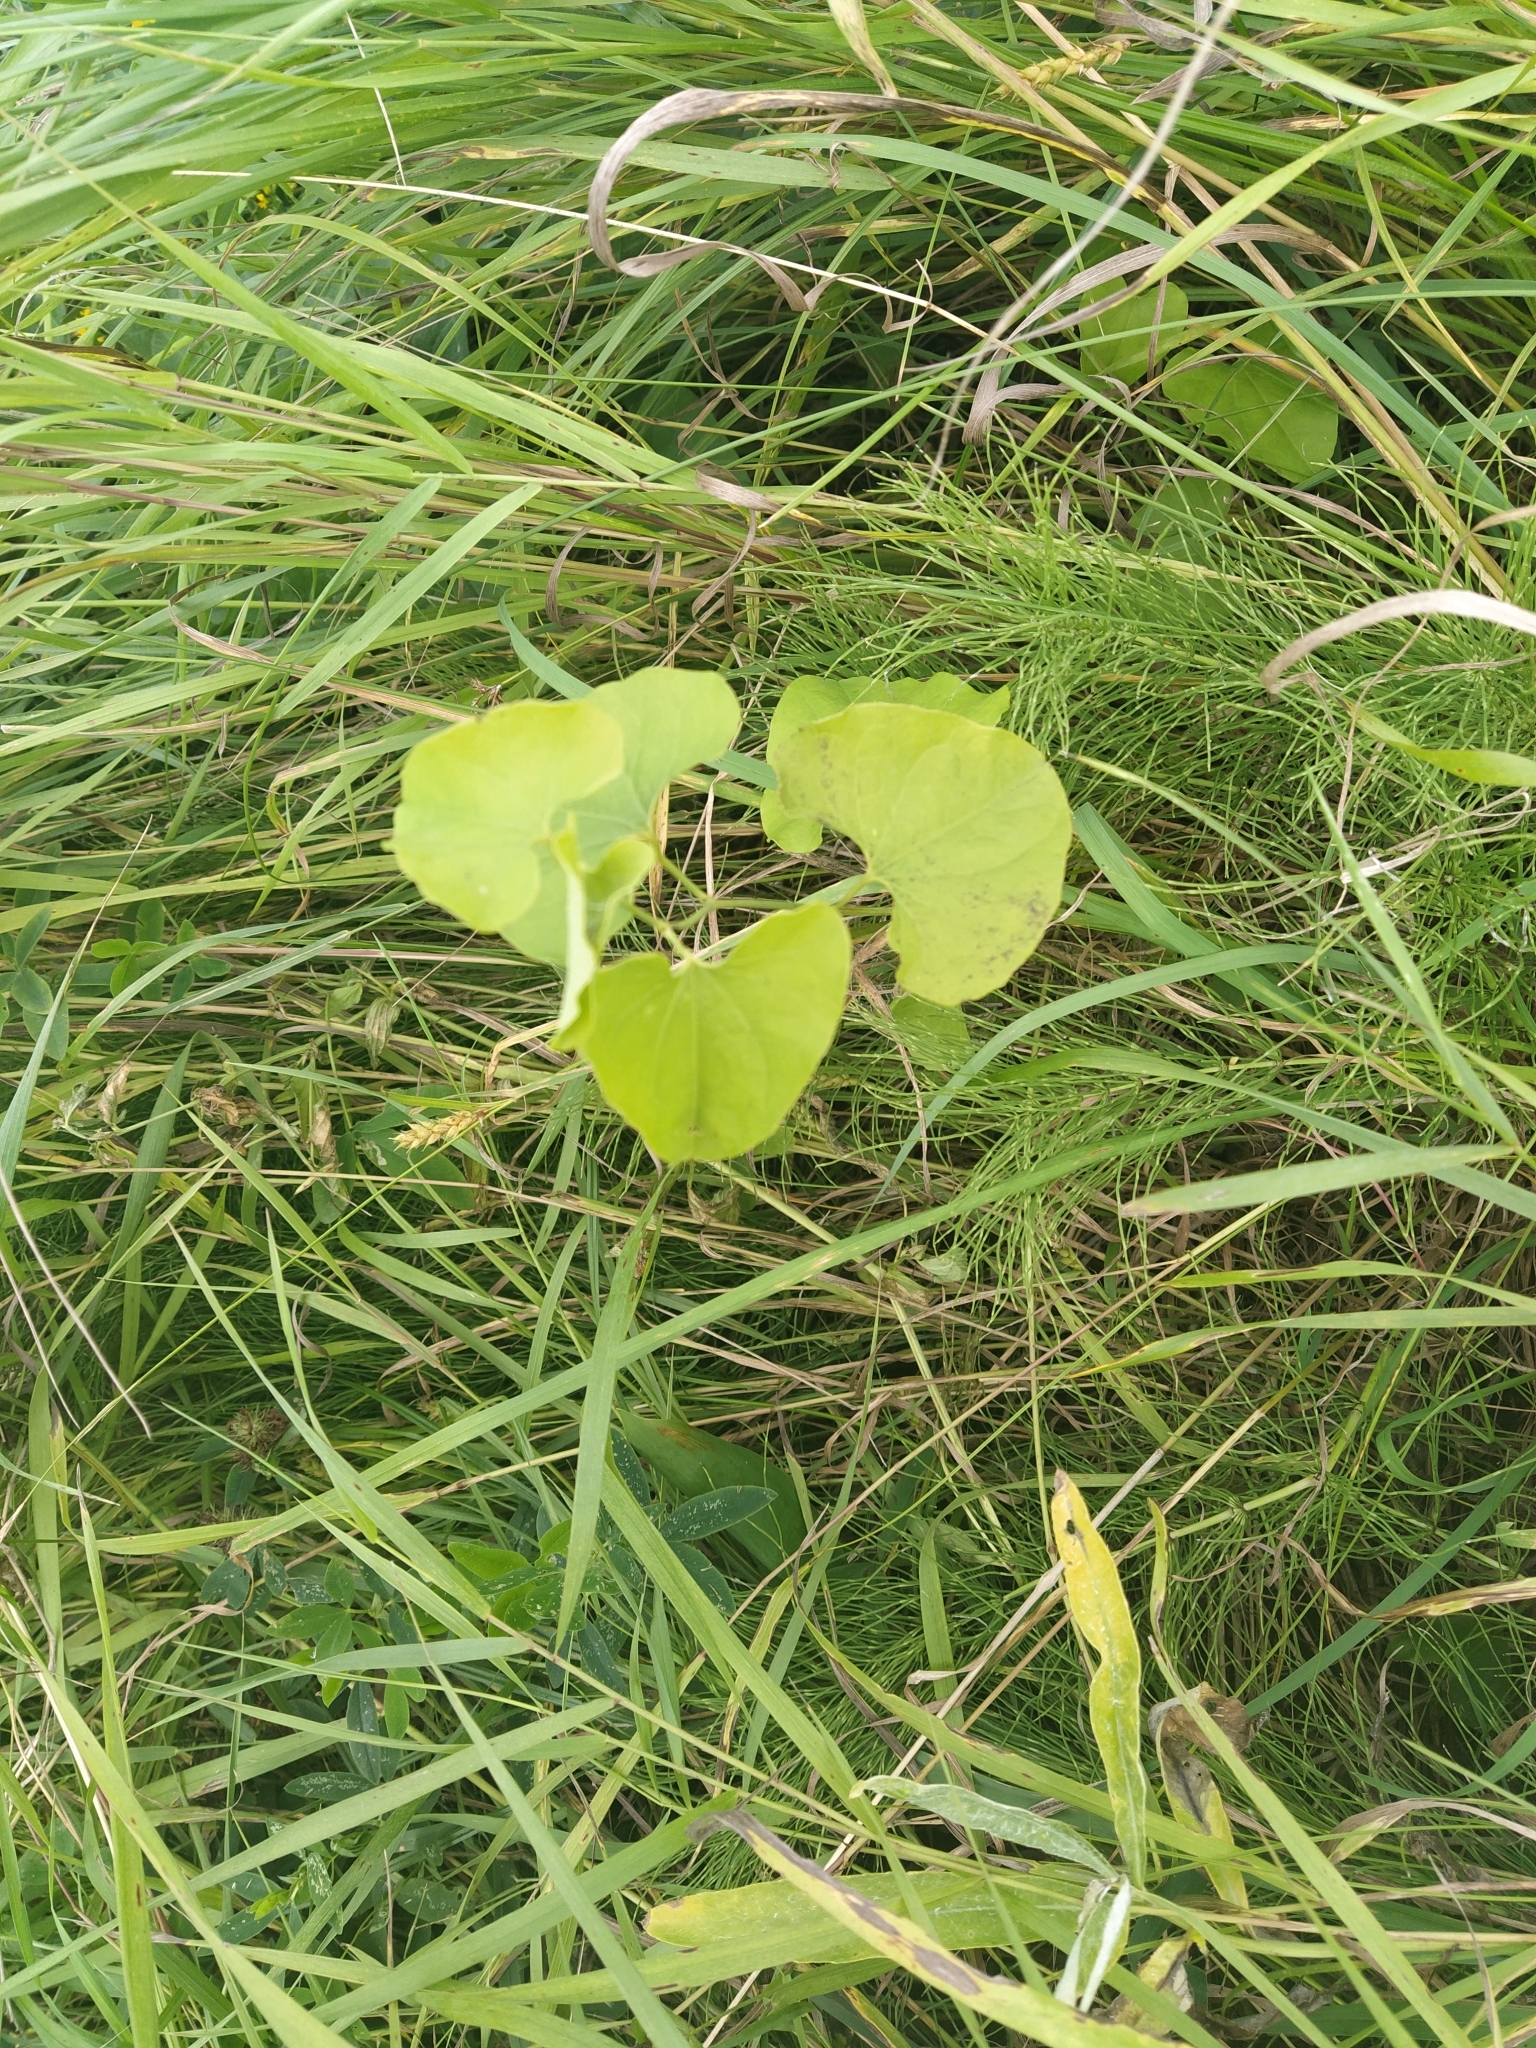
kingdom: Plantae
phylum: Tracheophyta
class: Magnoliopsida
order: Piperales
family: Aristolochiaceae
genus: Aristolochia
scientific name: Aristolochia clematitis
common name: Birthwort
